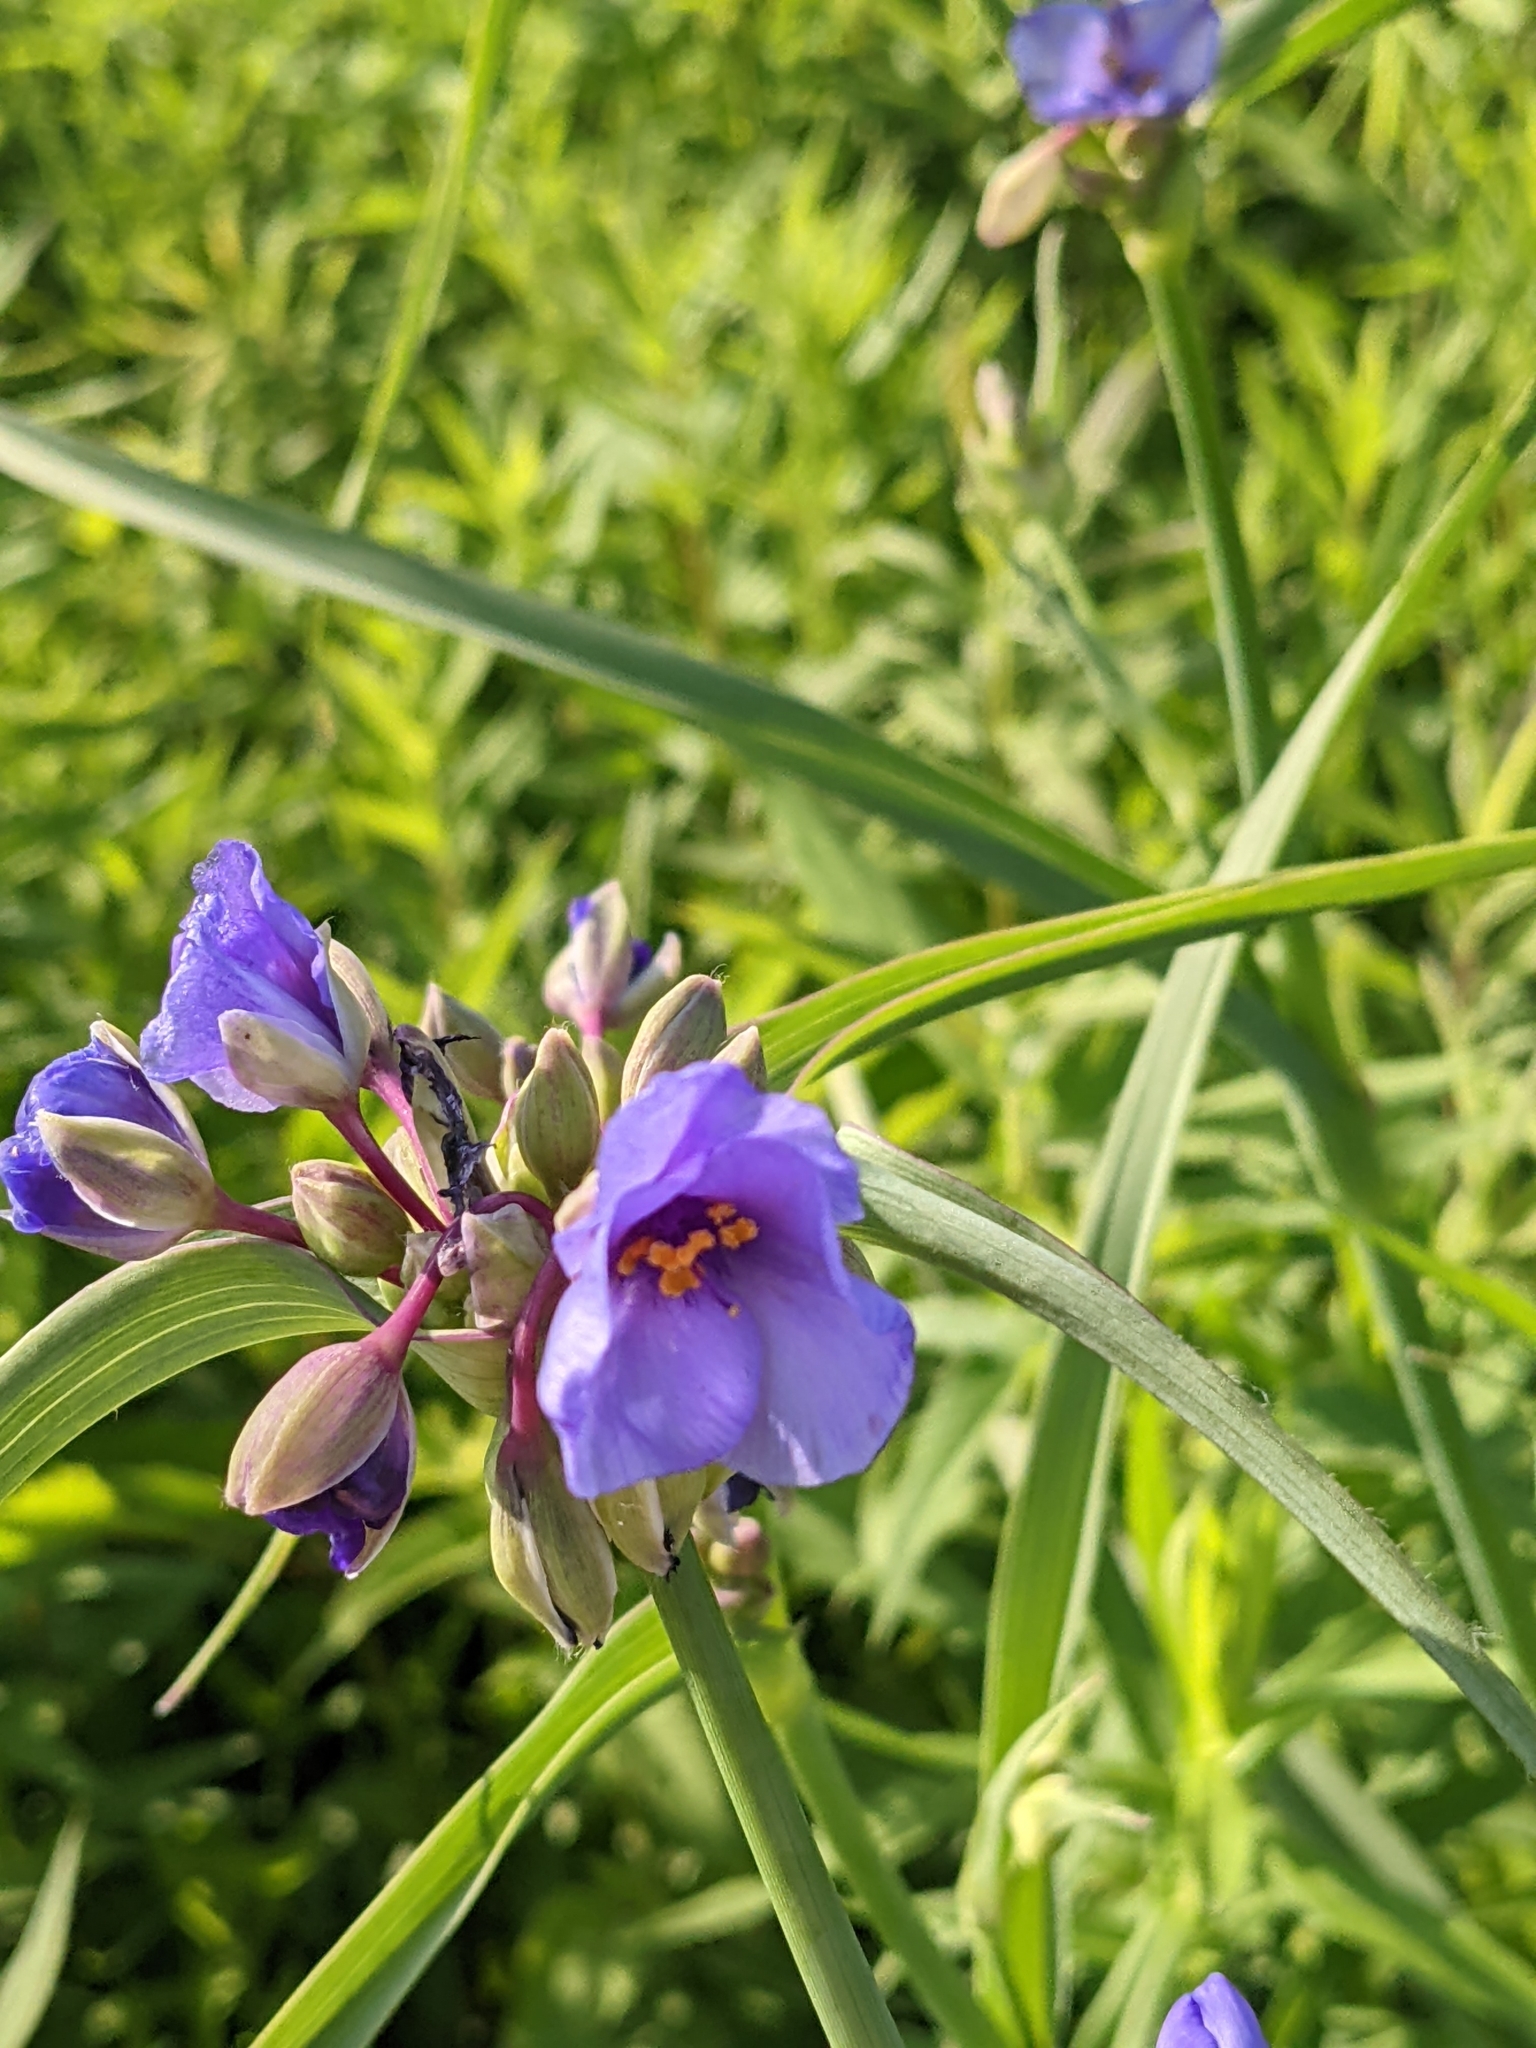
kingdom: Plantae
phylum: Tracheophyta
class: Liliopsida
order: Commelinales
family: Commelinaceae
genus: Tradescantia
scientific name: Tradescantia ohiensis
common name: Ohio spiderwort
